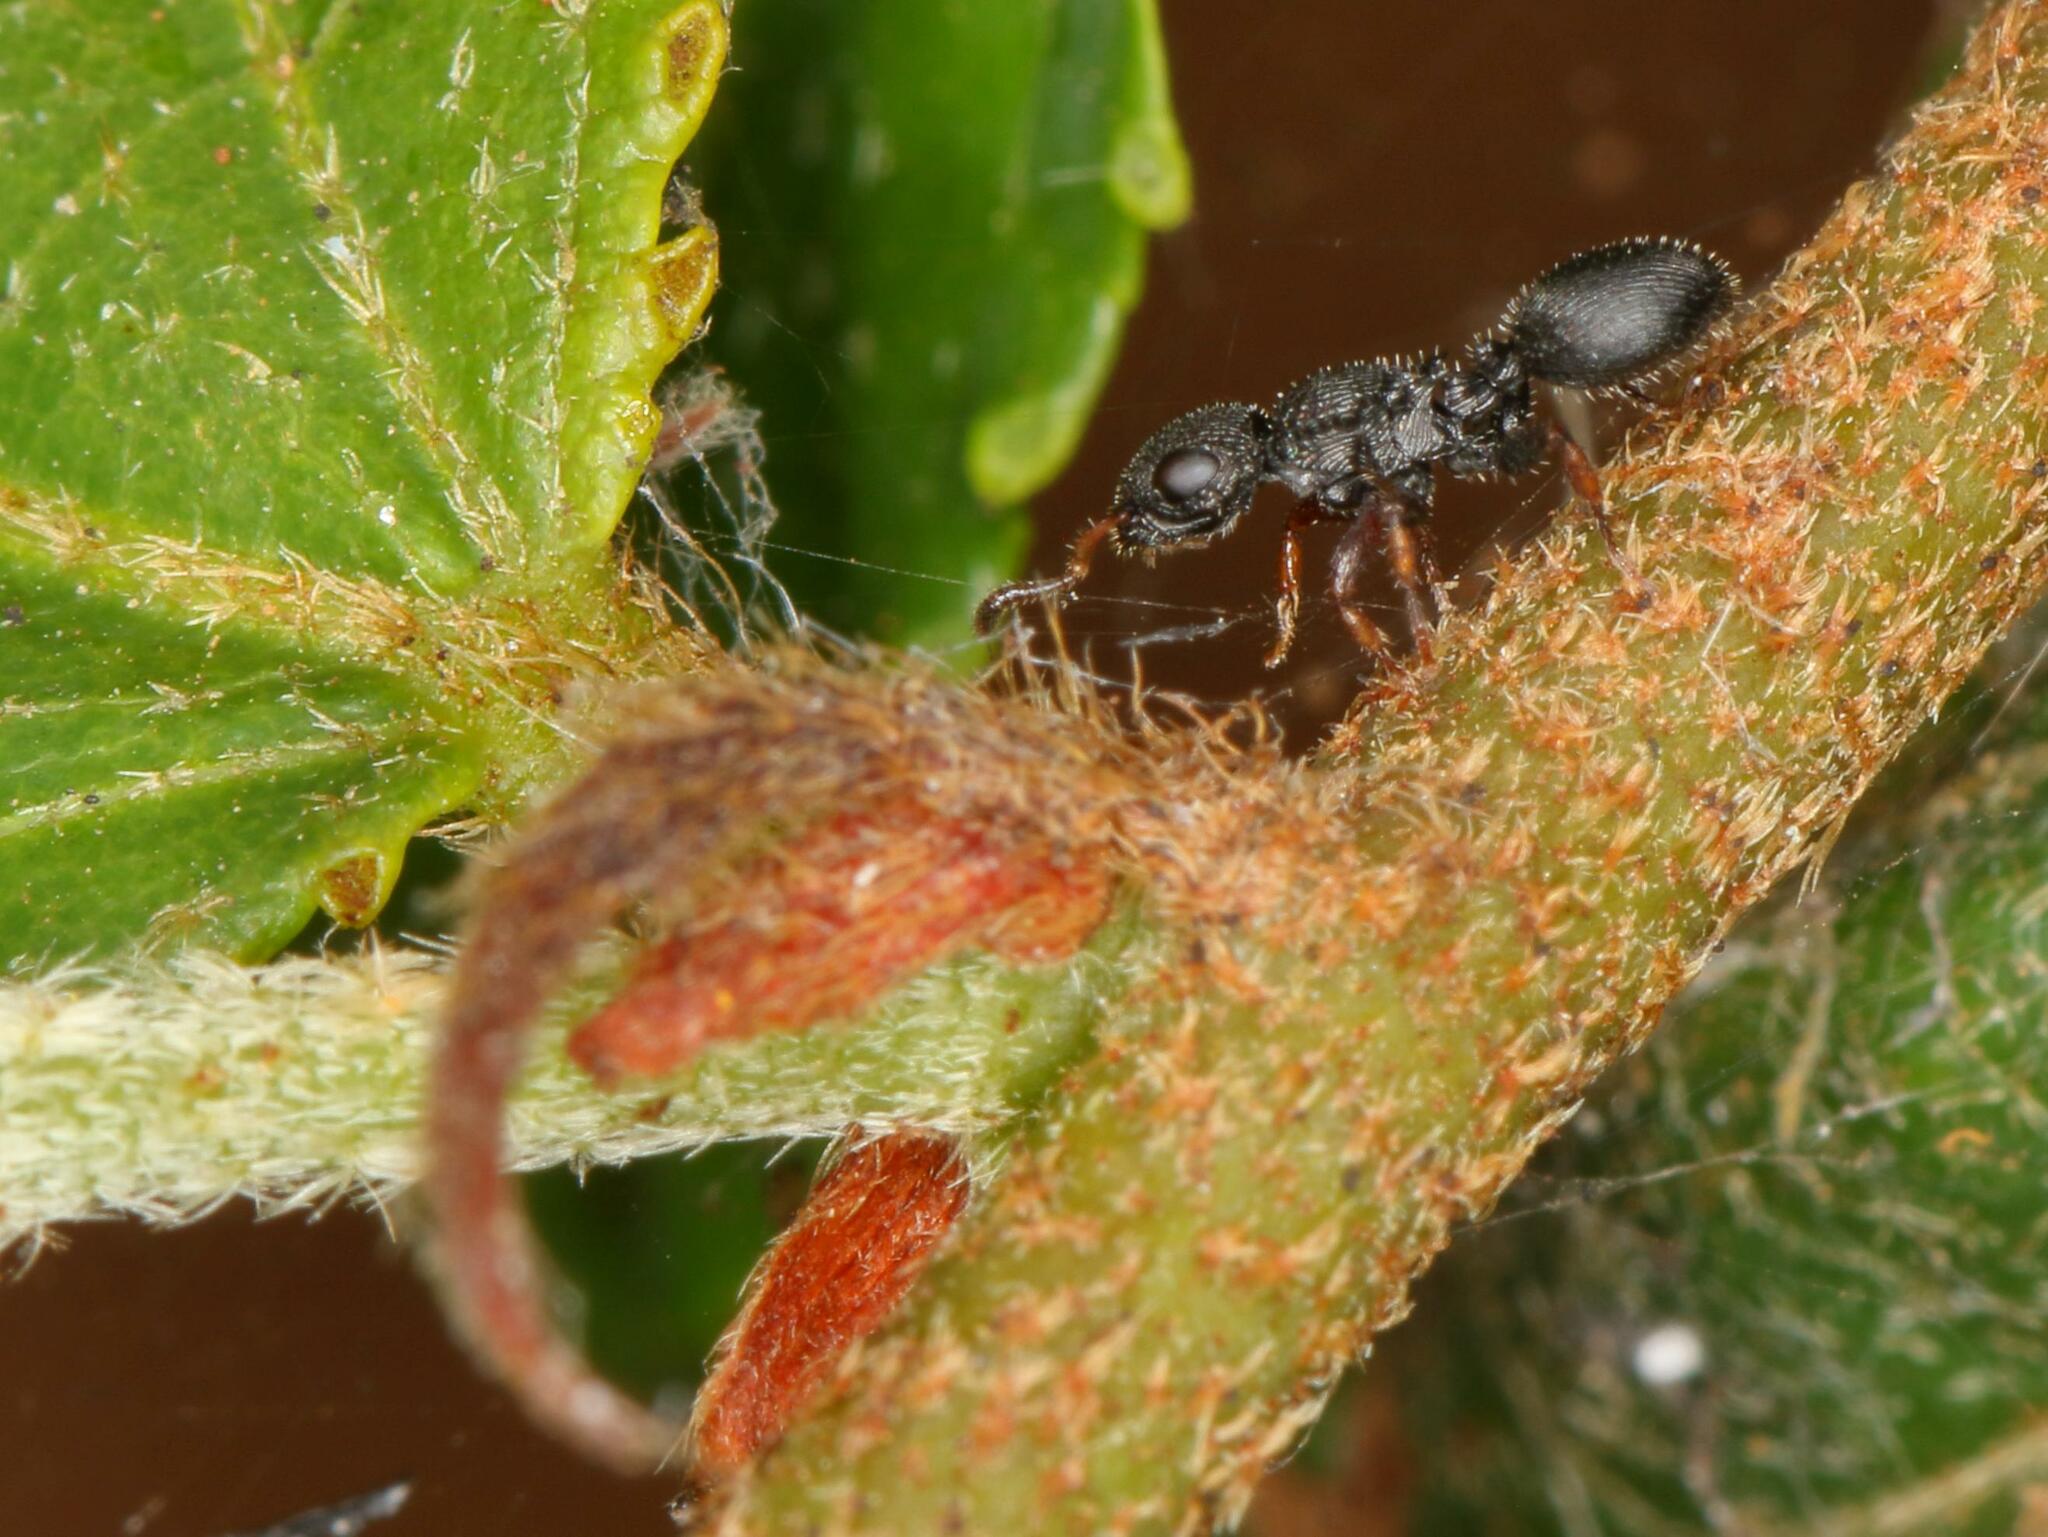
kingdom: Animalia
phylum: Arthropoda
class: Insecta
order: Hymenoptera
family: Formicidae
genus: Cataulacus
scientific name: Cataulacus wissmannii
